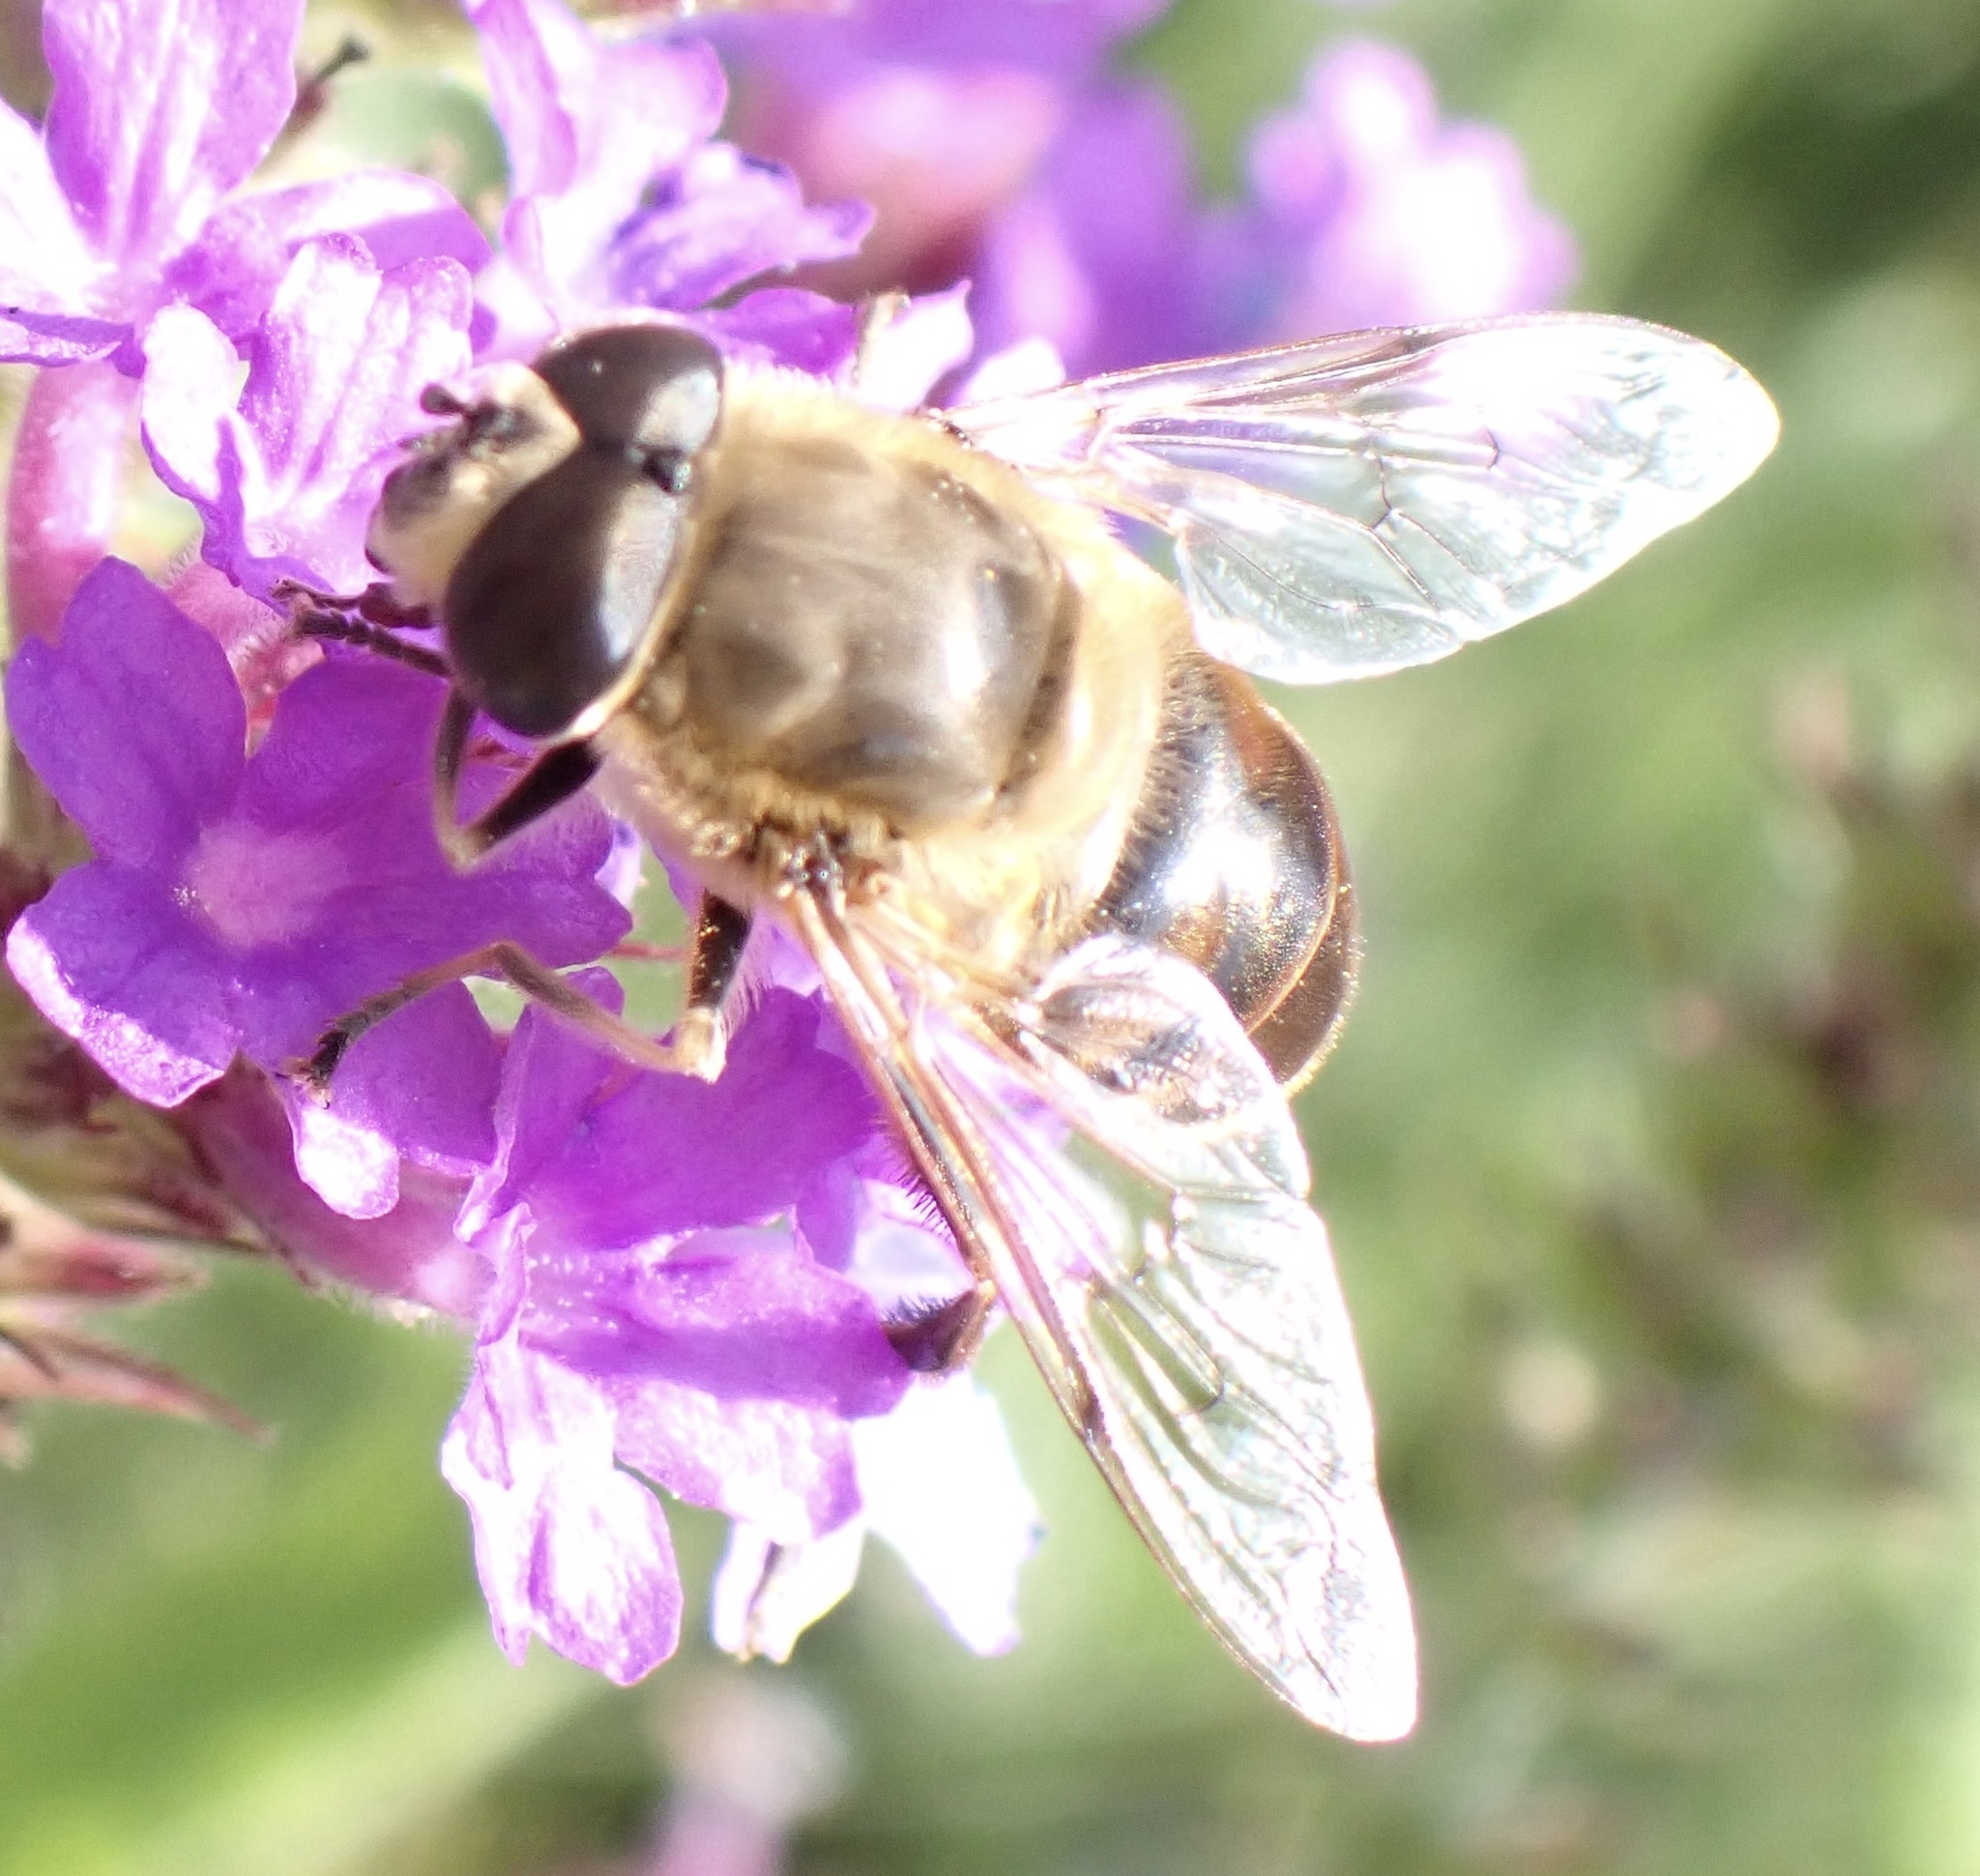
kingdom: Animalia
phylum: Arthropoda
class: Insecta
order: Diptera
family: Syrphidae
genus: Eristalis
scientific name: Eristalis tenax
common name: Drone fly
